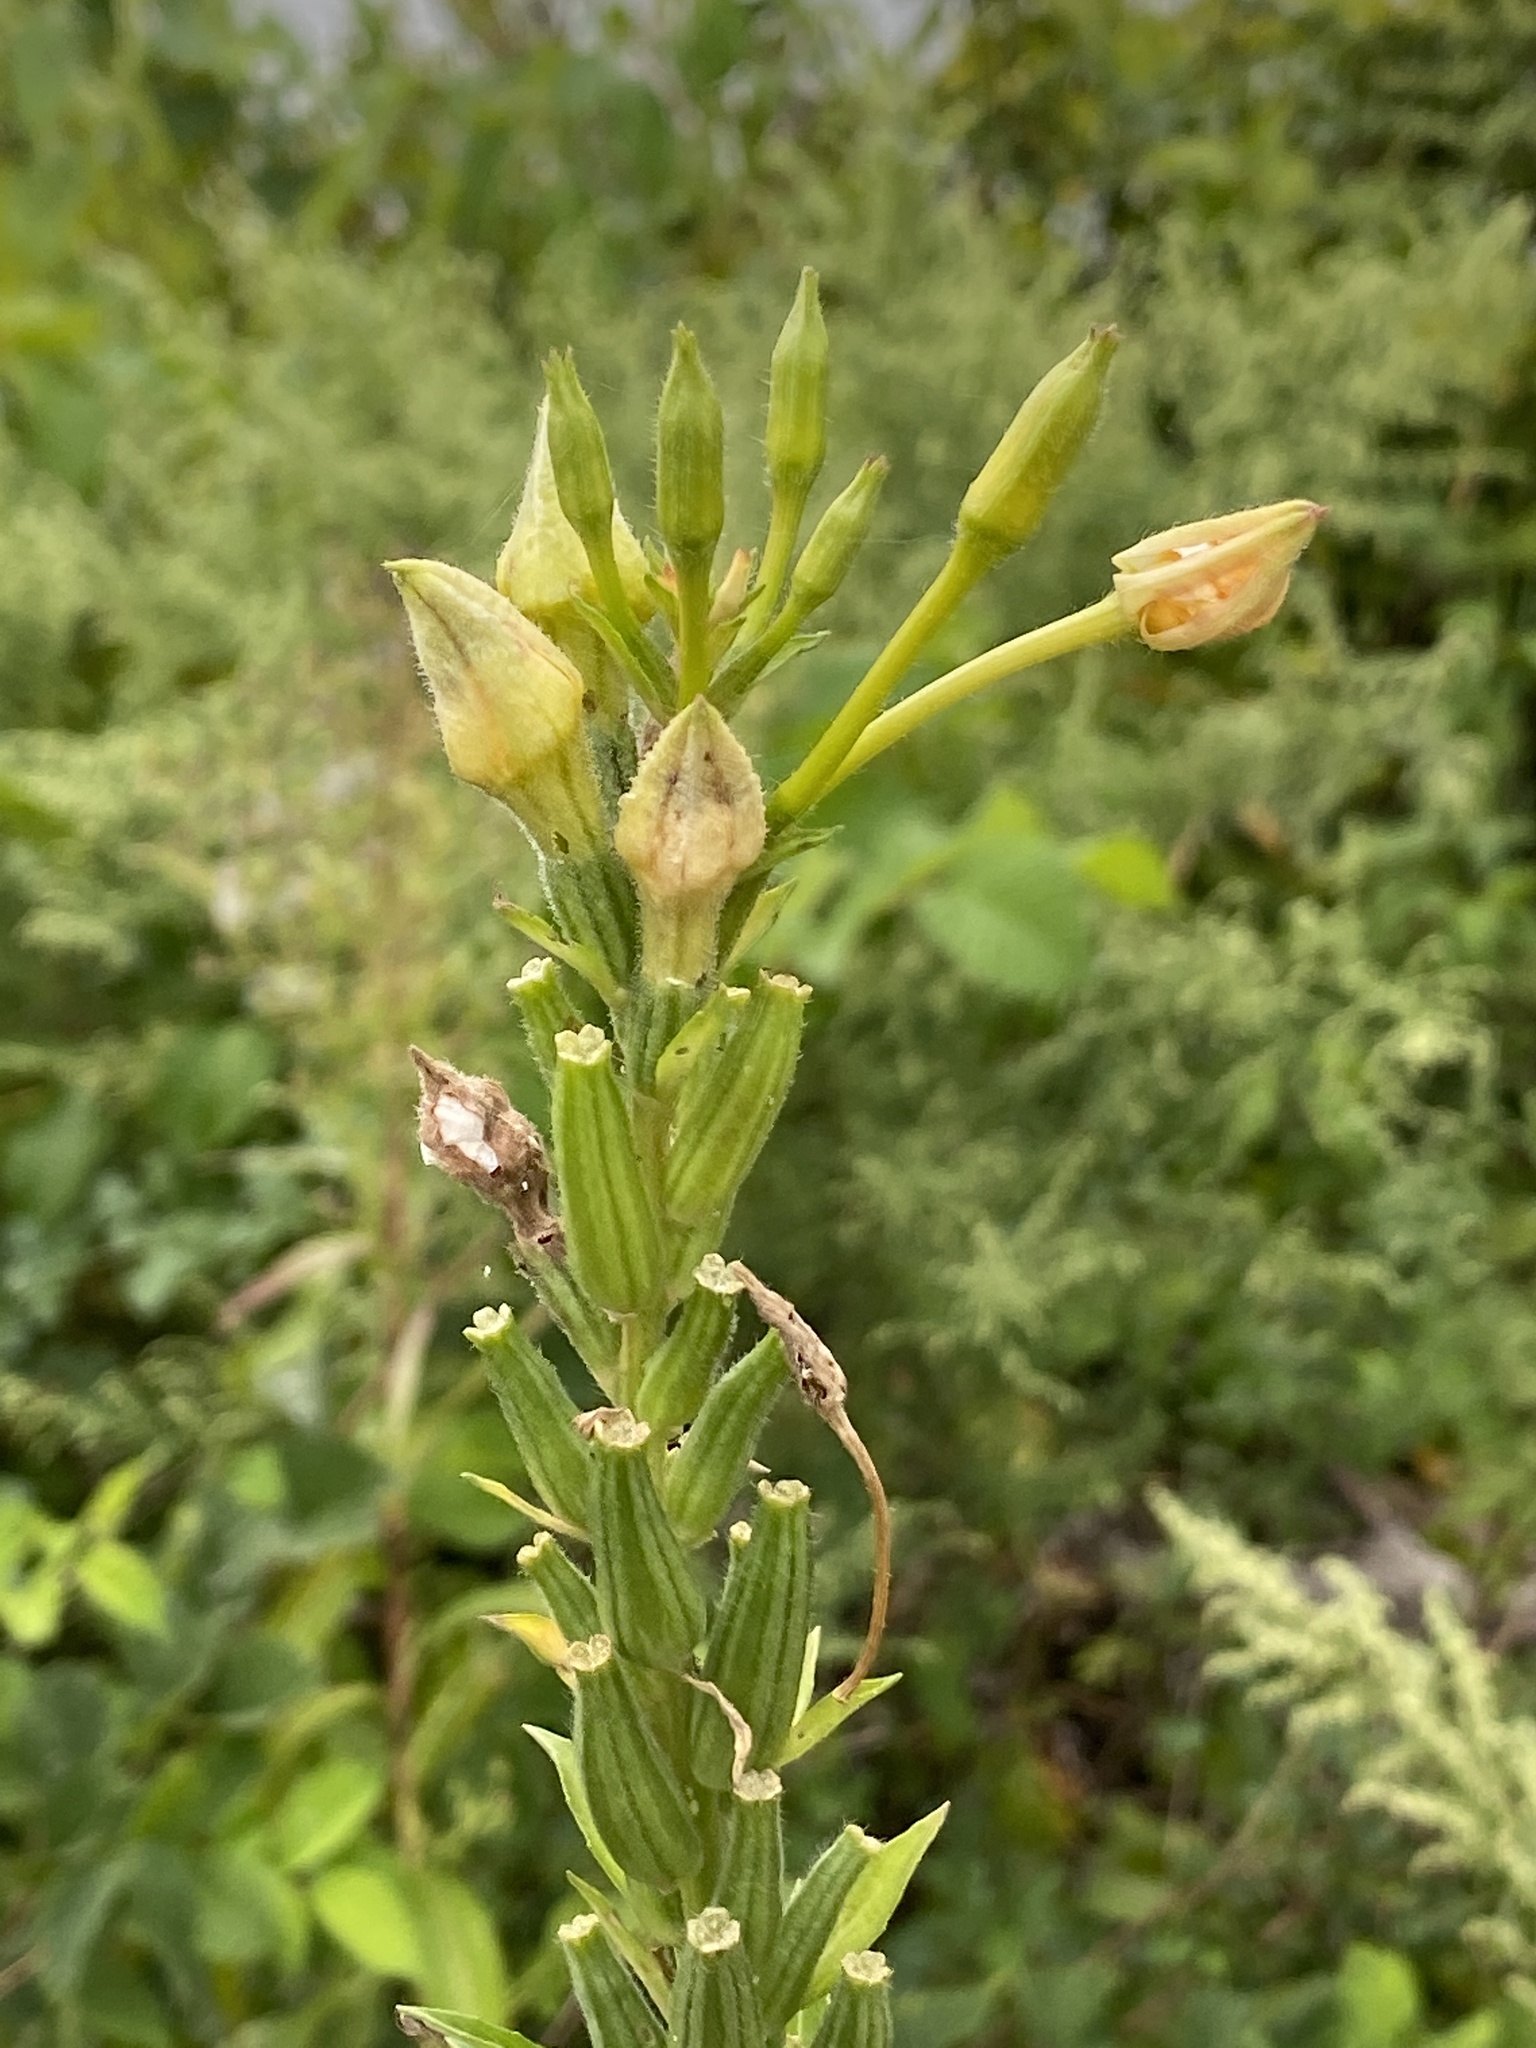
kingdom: Plantae
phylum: Tracheophyta
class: Magnoliopsida
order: Myrtales
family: Onagraceae
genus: Oenothera
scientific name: Oenothera biennis
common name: Common evening-primrose
